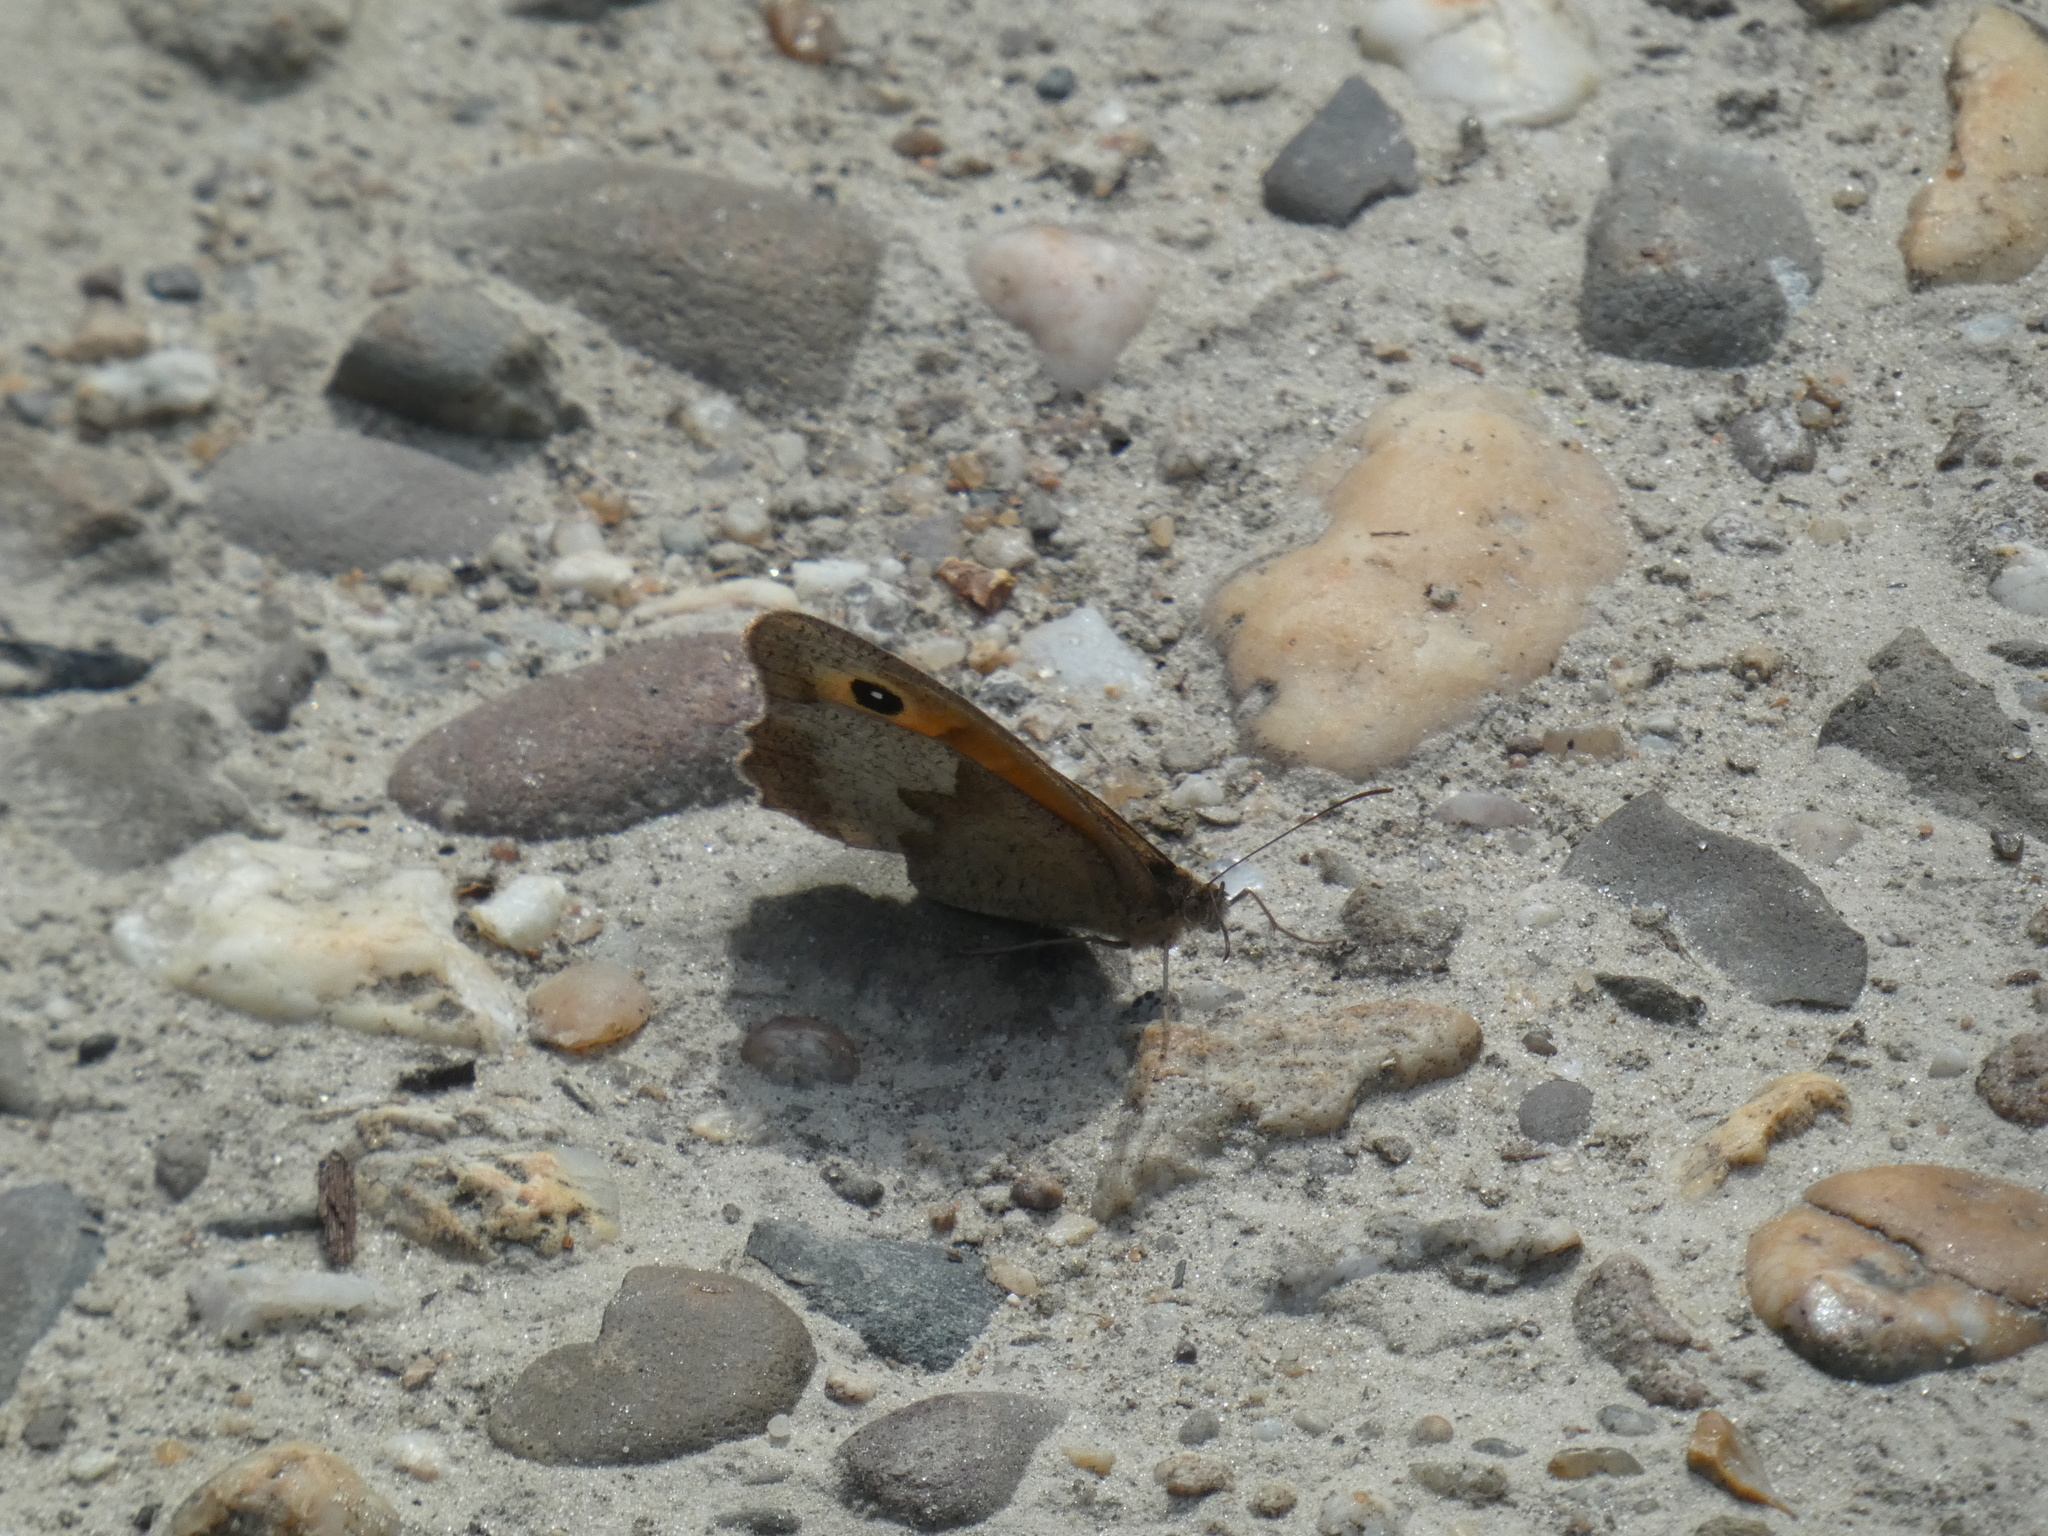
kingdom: Animalia
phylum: Arthropoda
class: Insecta
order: Lepidoptera
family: Nymphalidae
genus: Maniola
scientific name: Maniola jurtina
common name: Meadow brown
